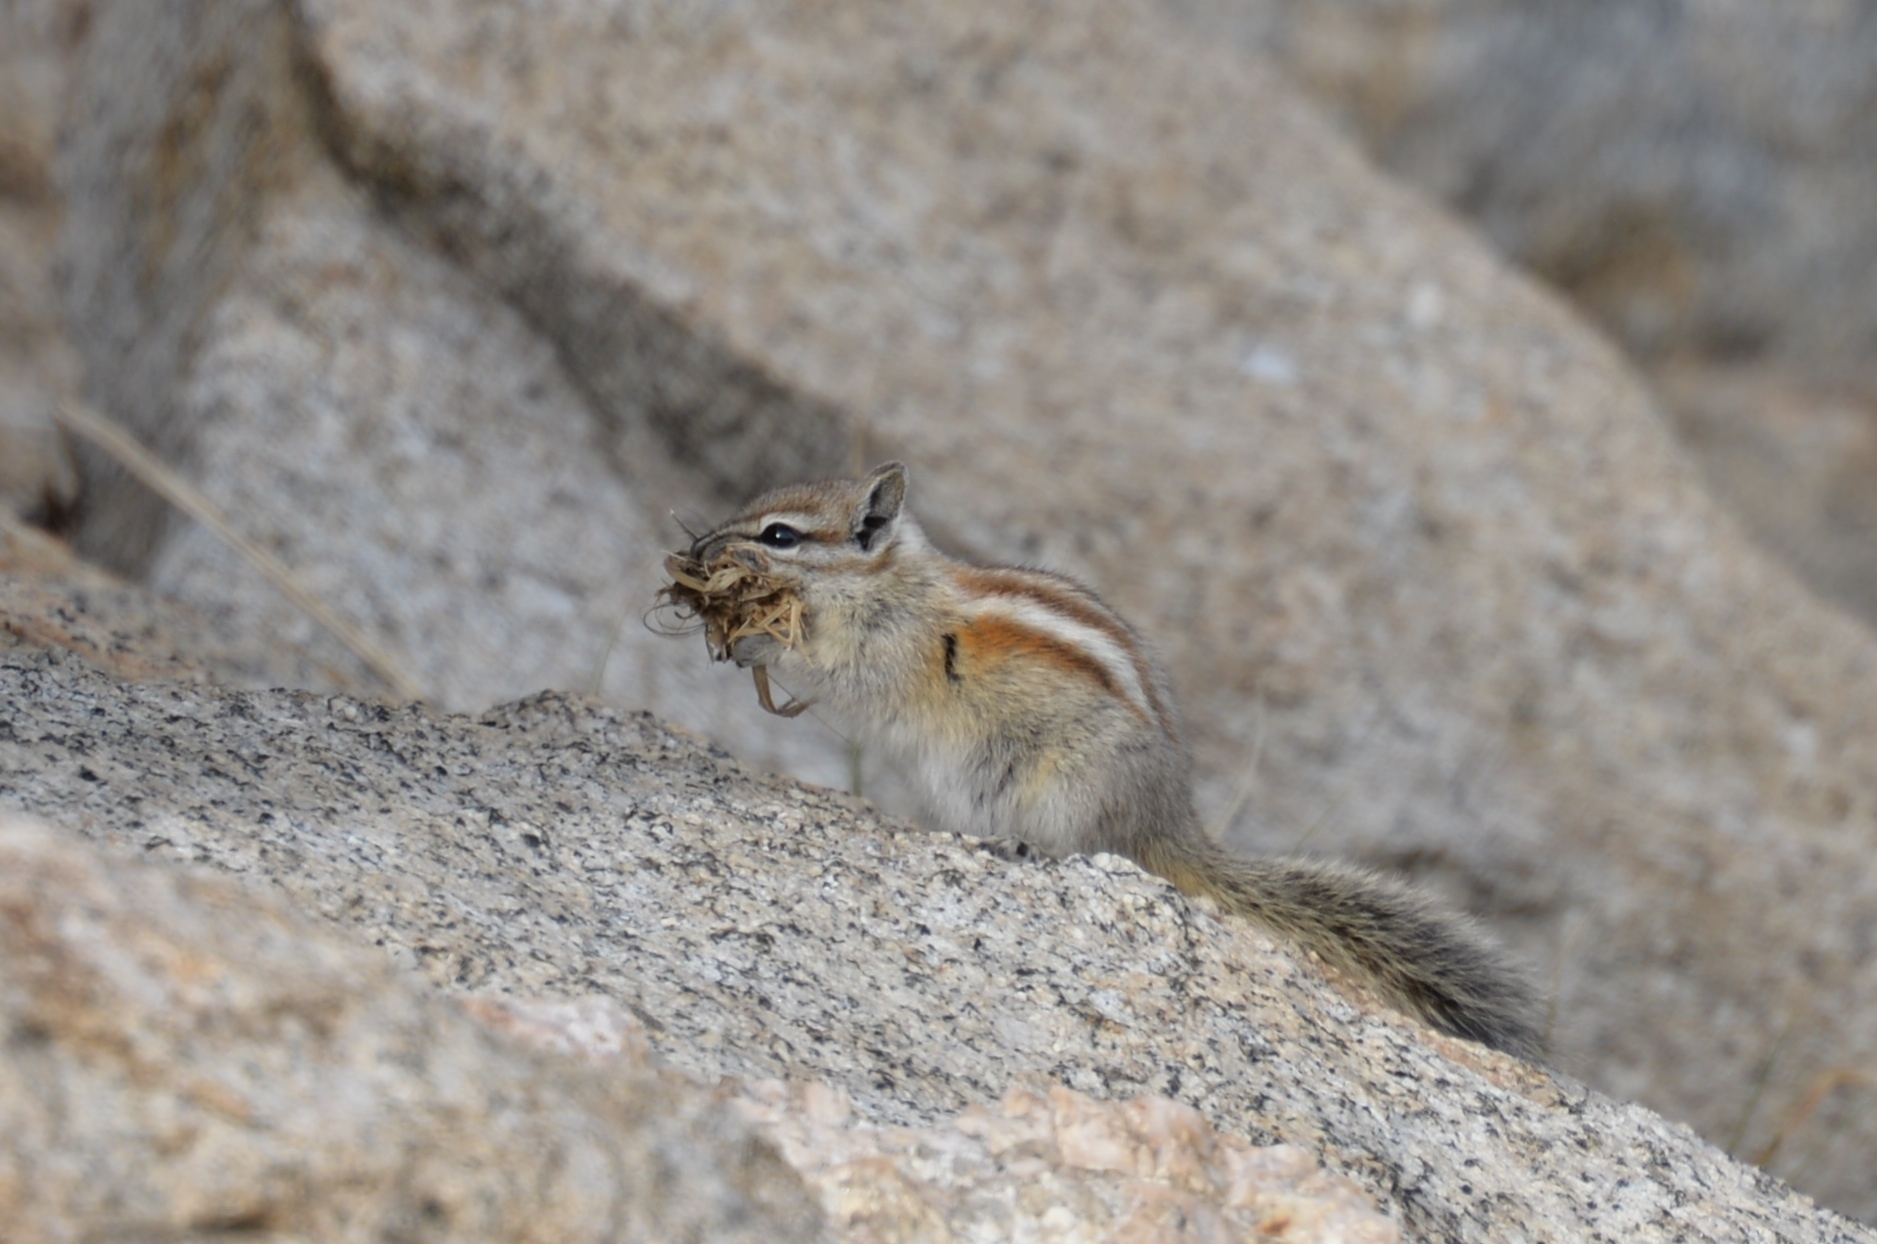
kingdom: Animalia
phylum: Chordata
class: Mammalia
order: Rodentia
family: Sciuridae
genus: Tamias
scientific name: Tamias alpinus
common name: Alpine chipmunk
